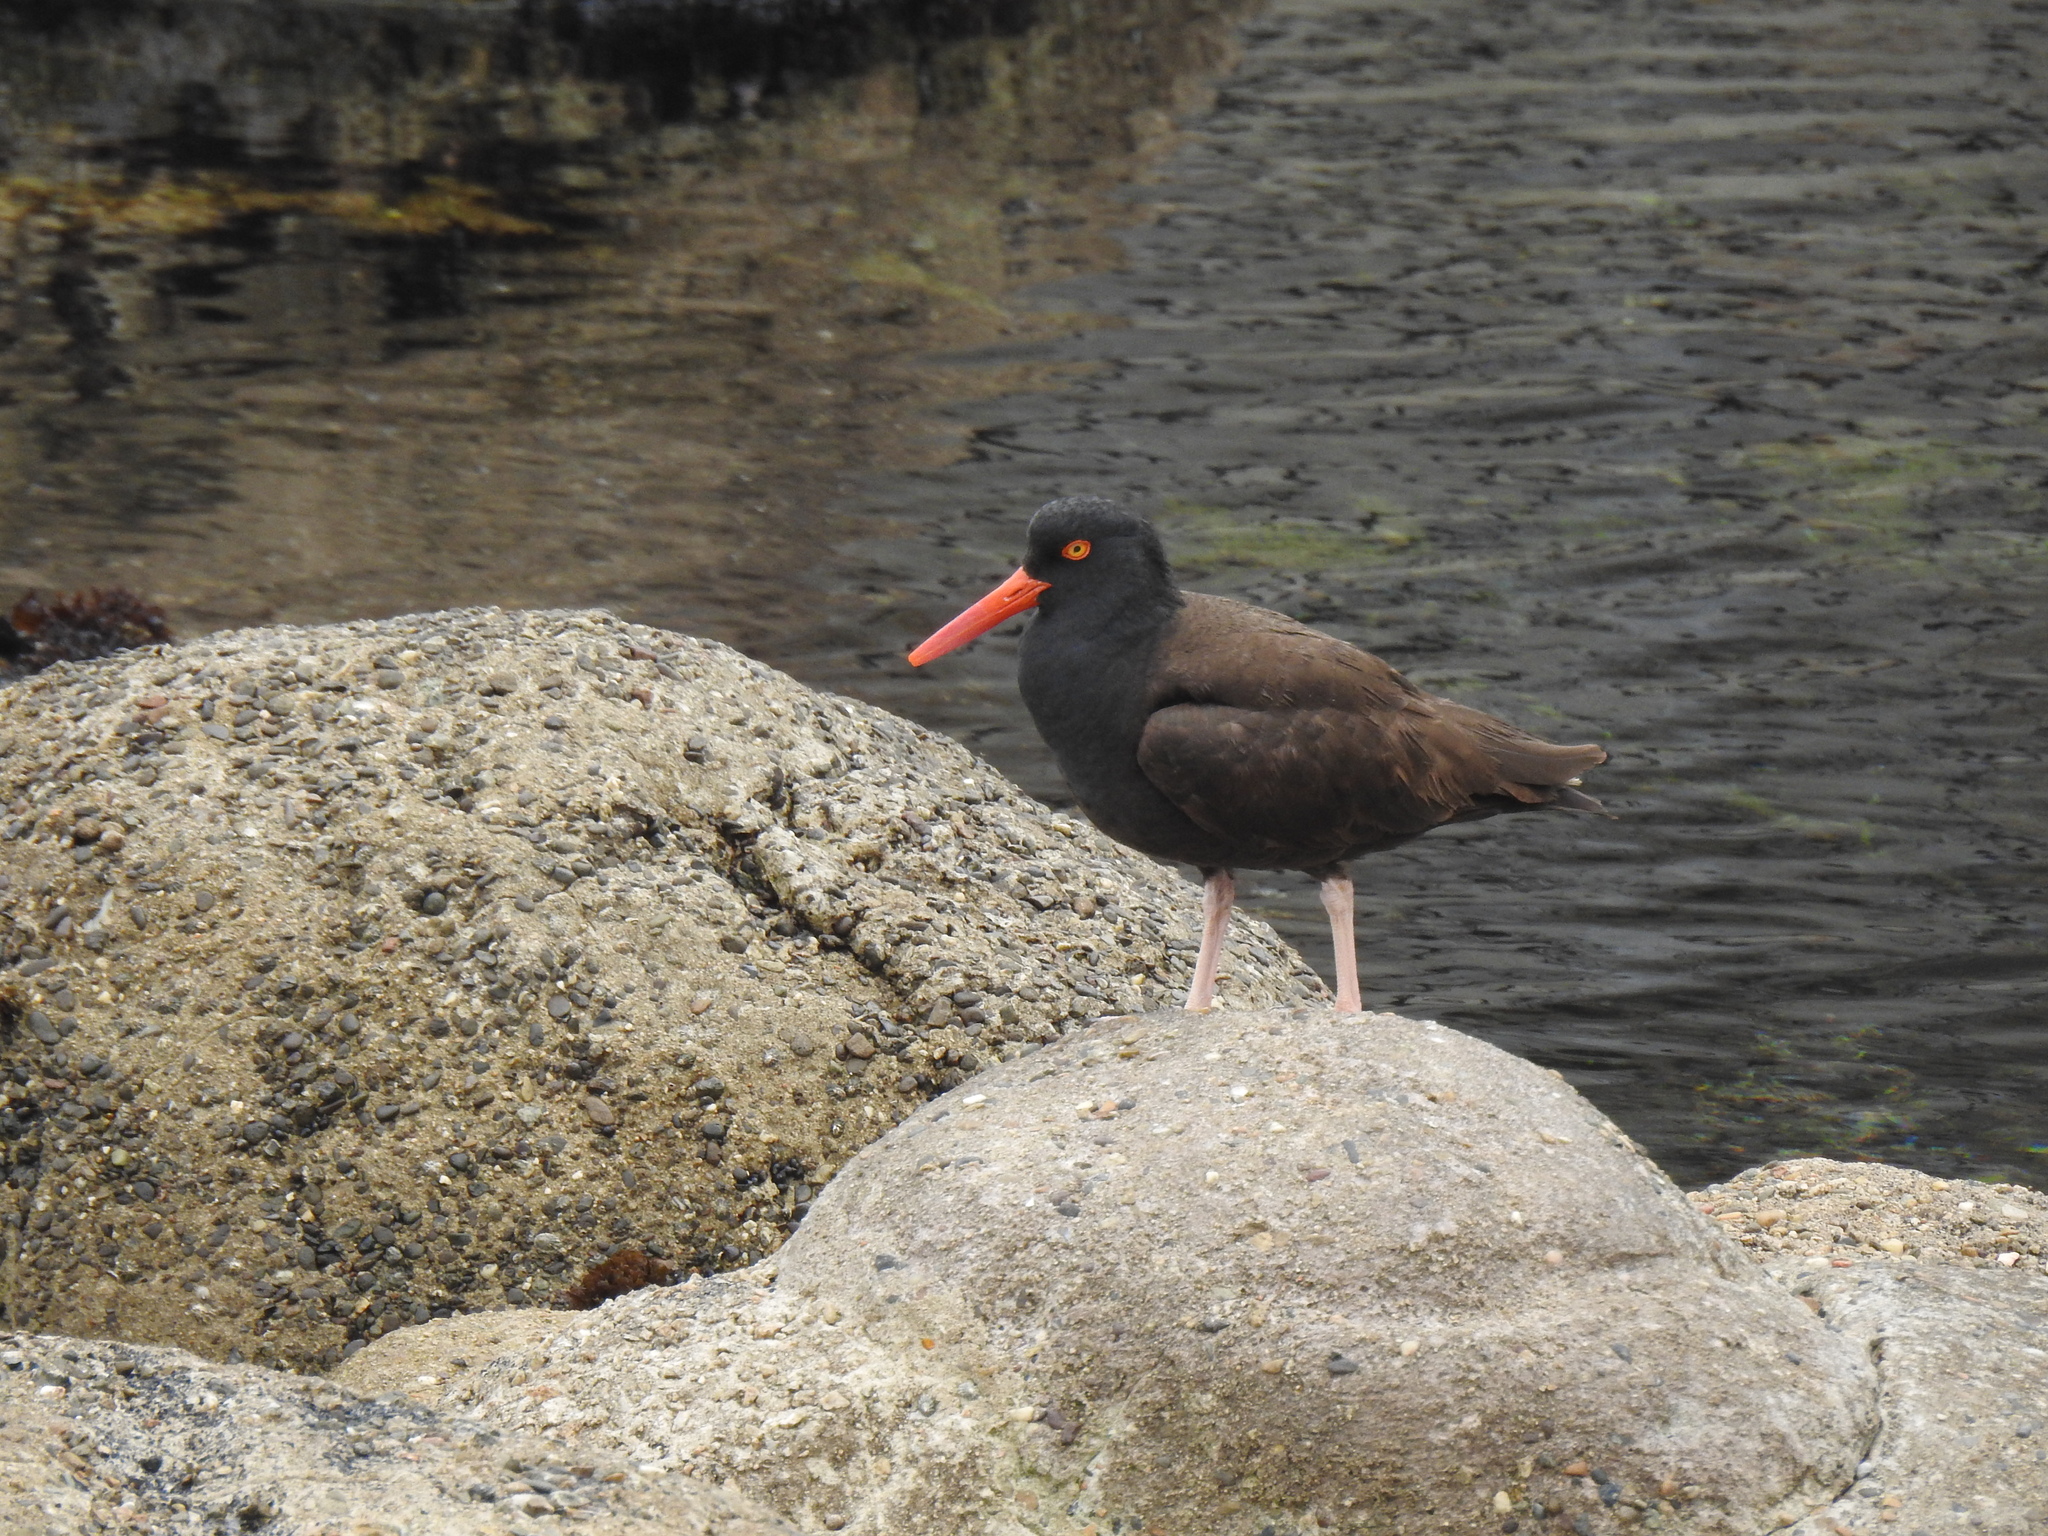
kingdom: Animalia
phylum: Chordata
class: Aves
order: Charadriiformes
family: Haematopodidae
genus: Haematopus
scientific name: Haematopus bachmani
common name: Black oystercatcher
